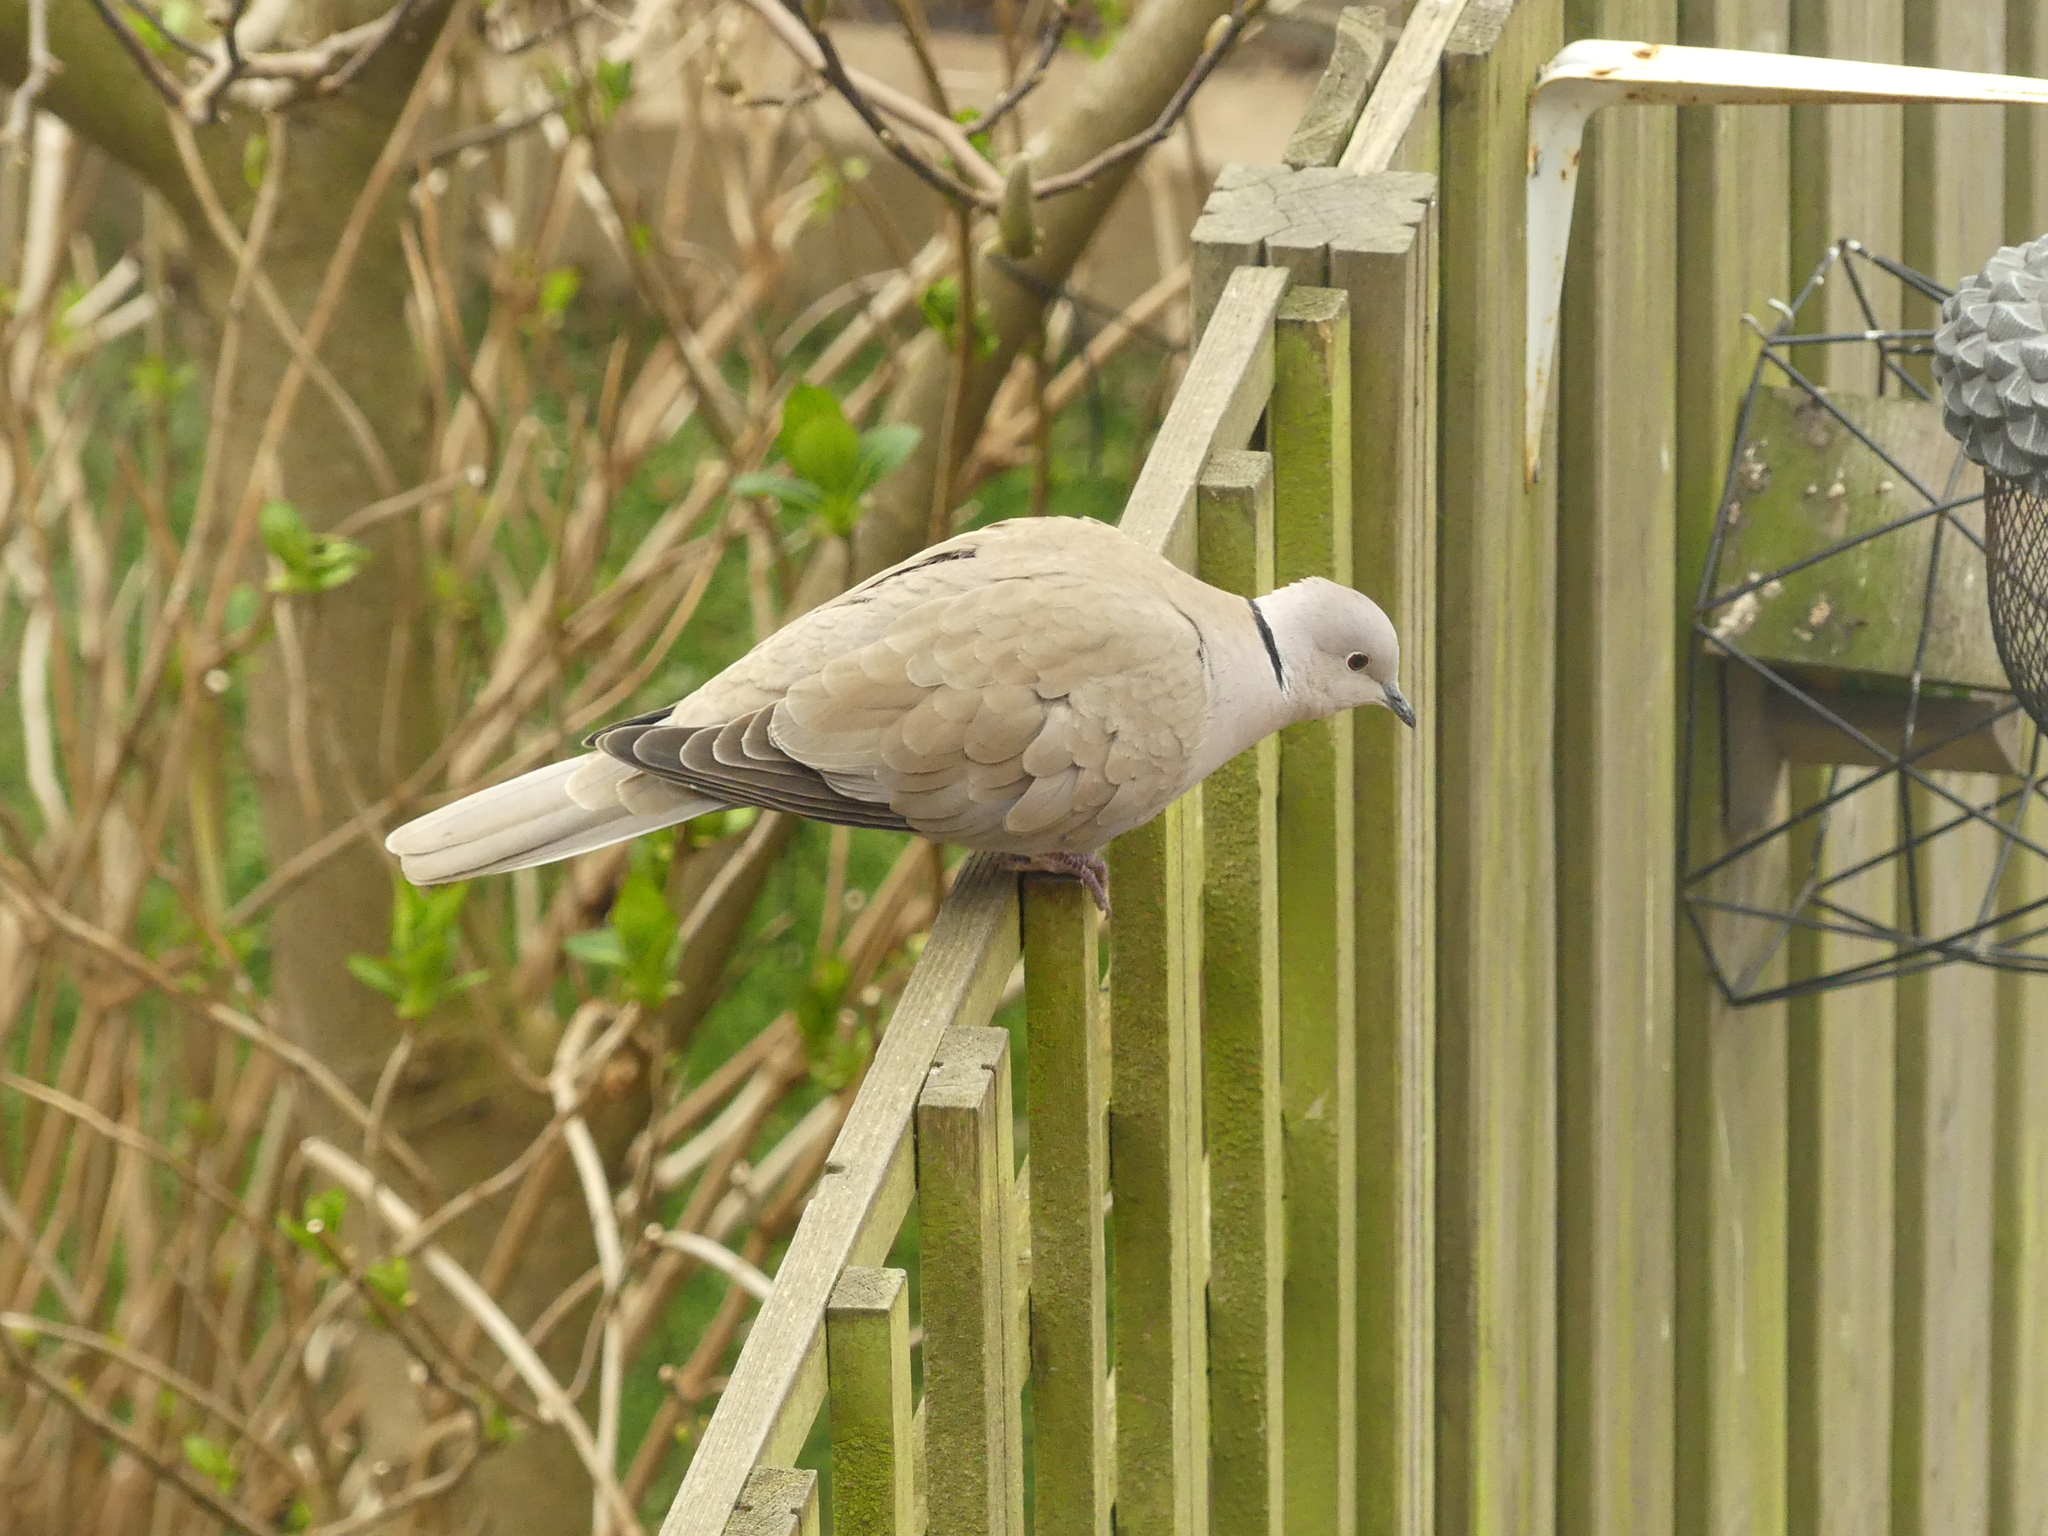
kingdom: Animalia
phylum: Chordata
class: Aves
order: Columbiformes
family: Columbidae
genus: Streptopelia
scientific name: Streptopelia decaocto
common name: Eurasian collared dove
